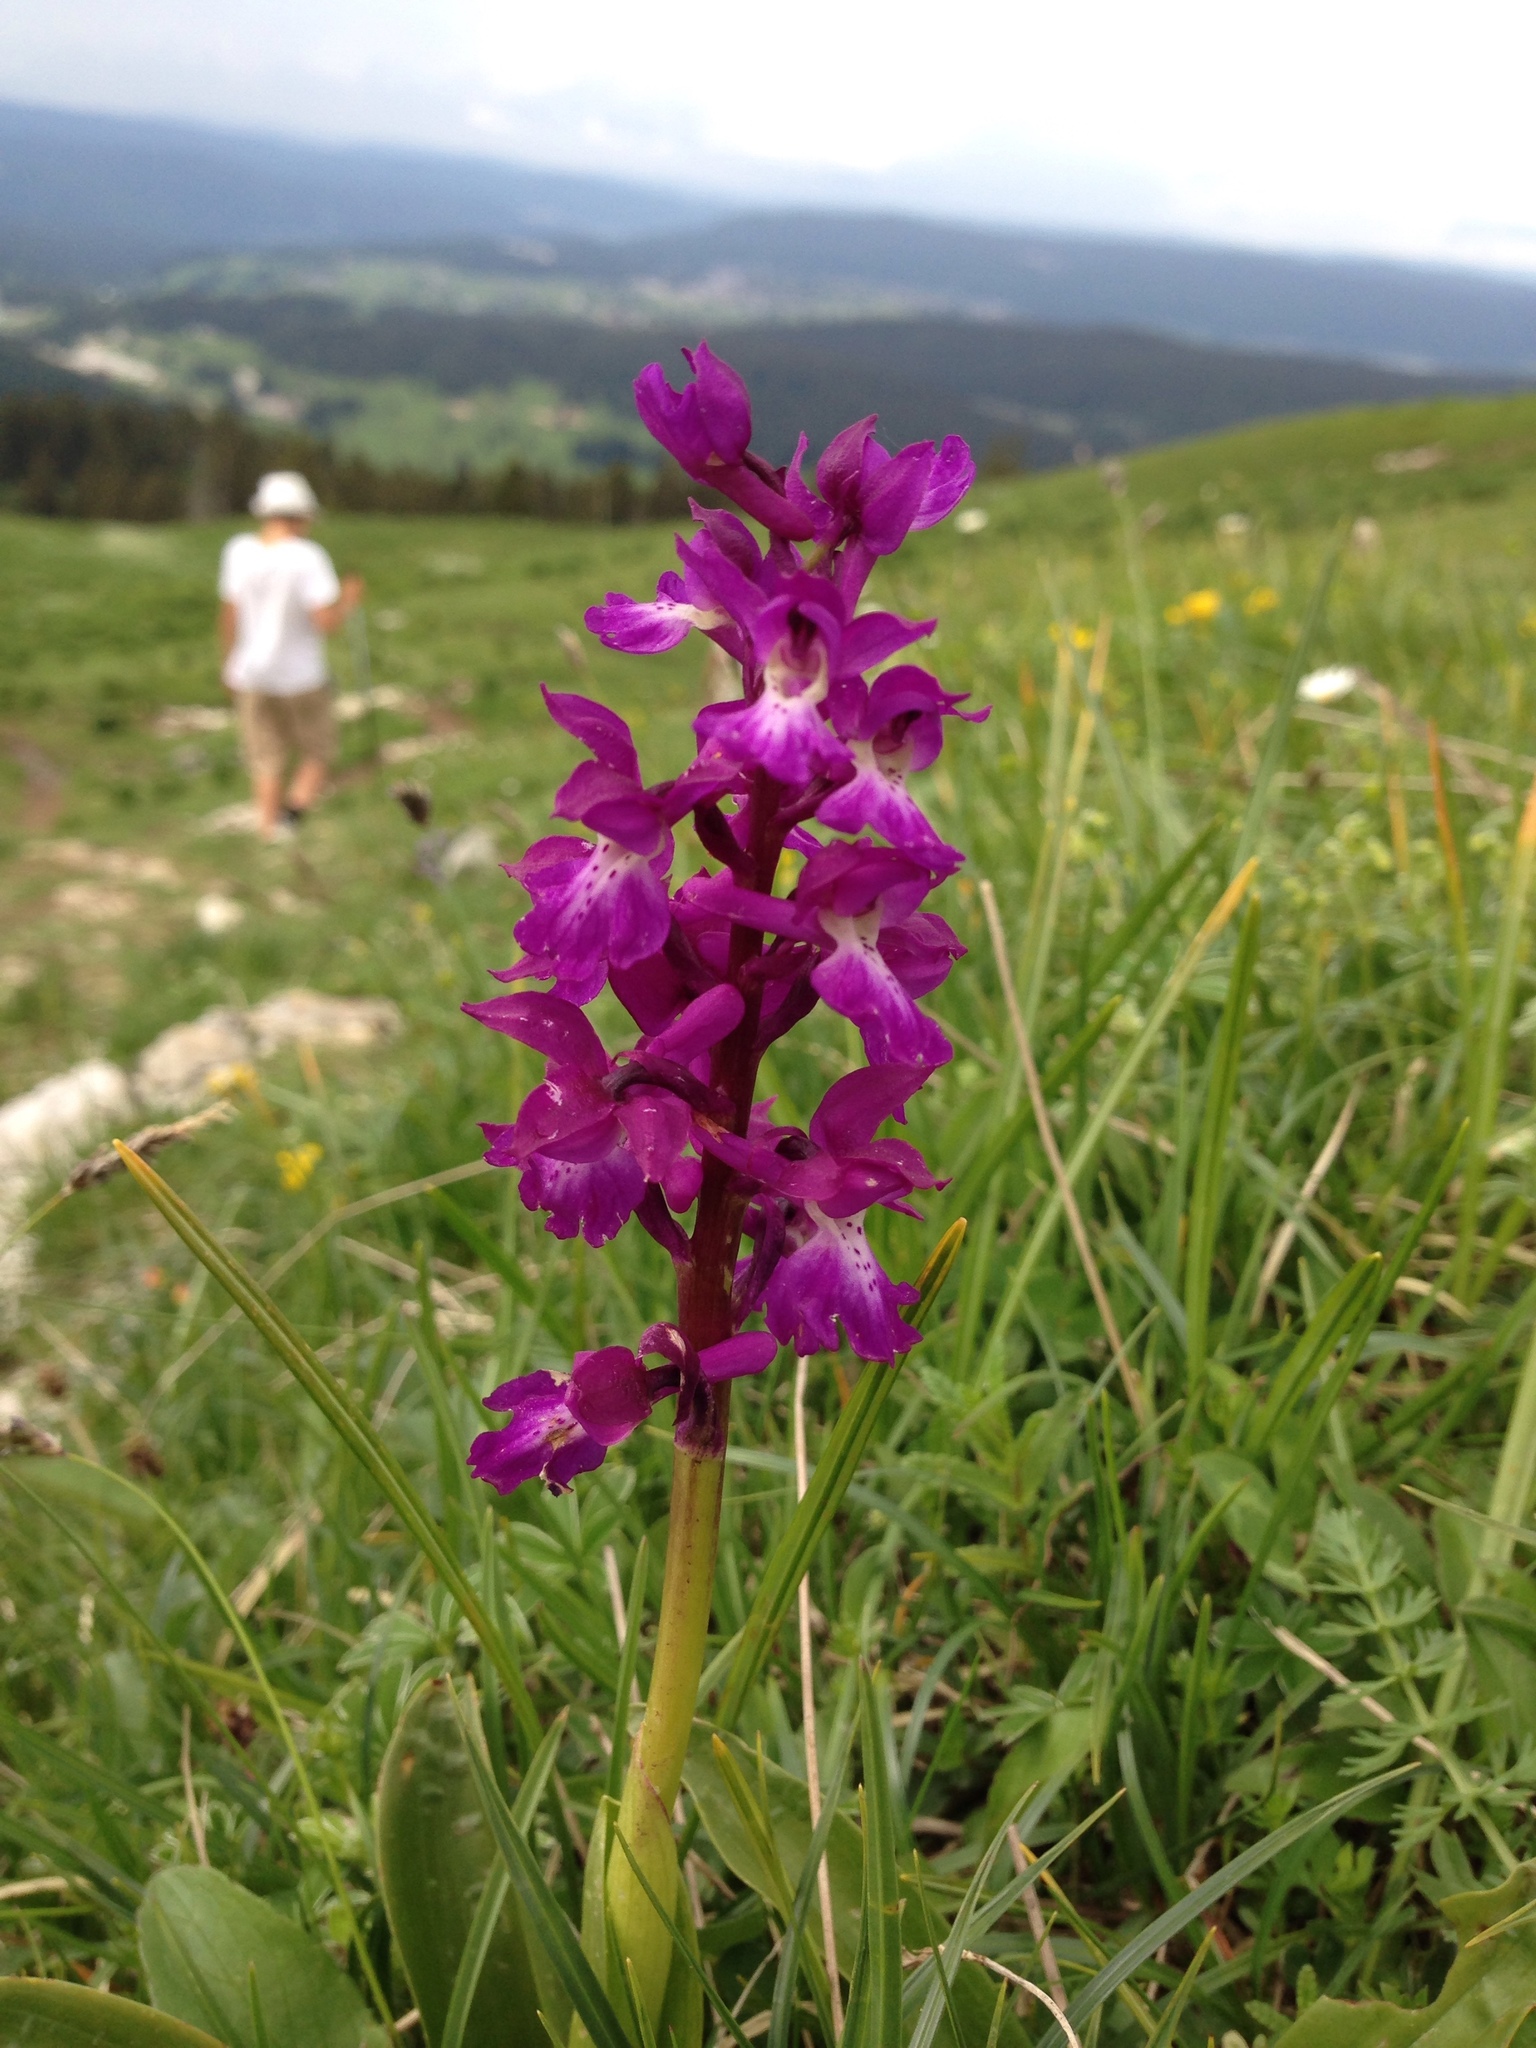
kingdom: Plantae
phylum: Tracheophyta
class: Liliopsida
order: Asparagales
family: Orchidaceae
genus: Orchis
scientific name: Orchis mascula
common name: Early-purple orchid
